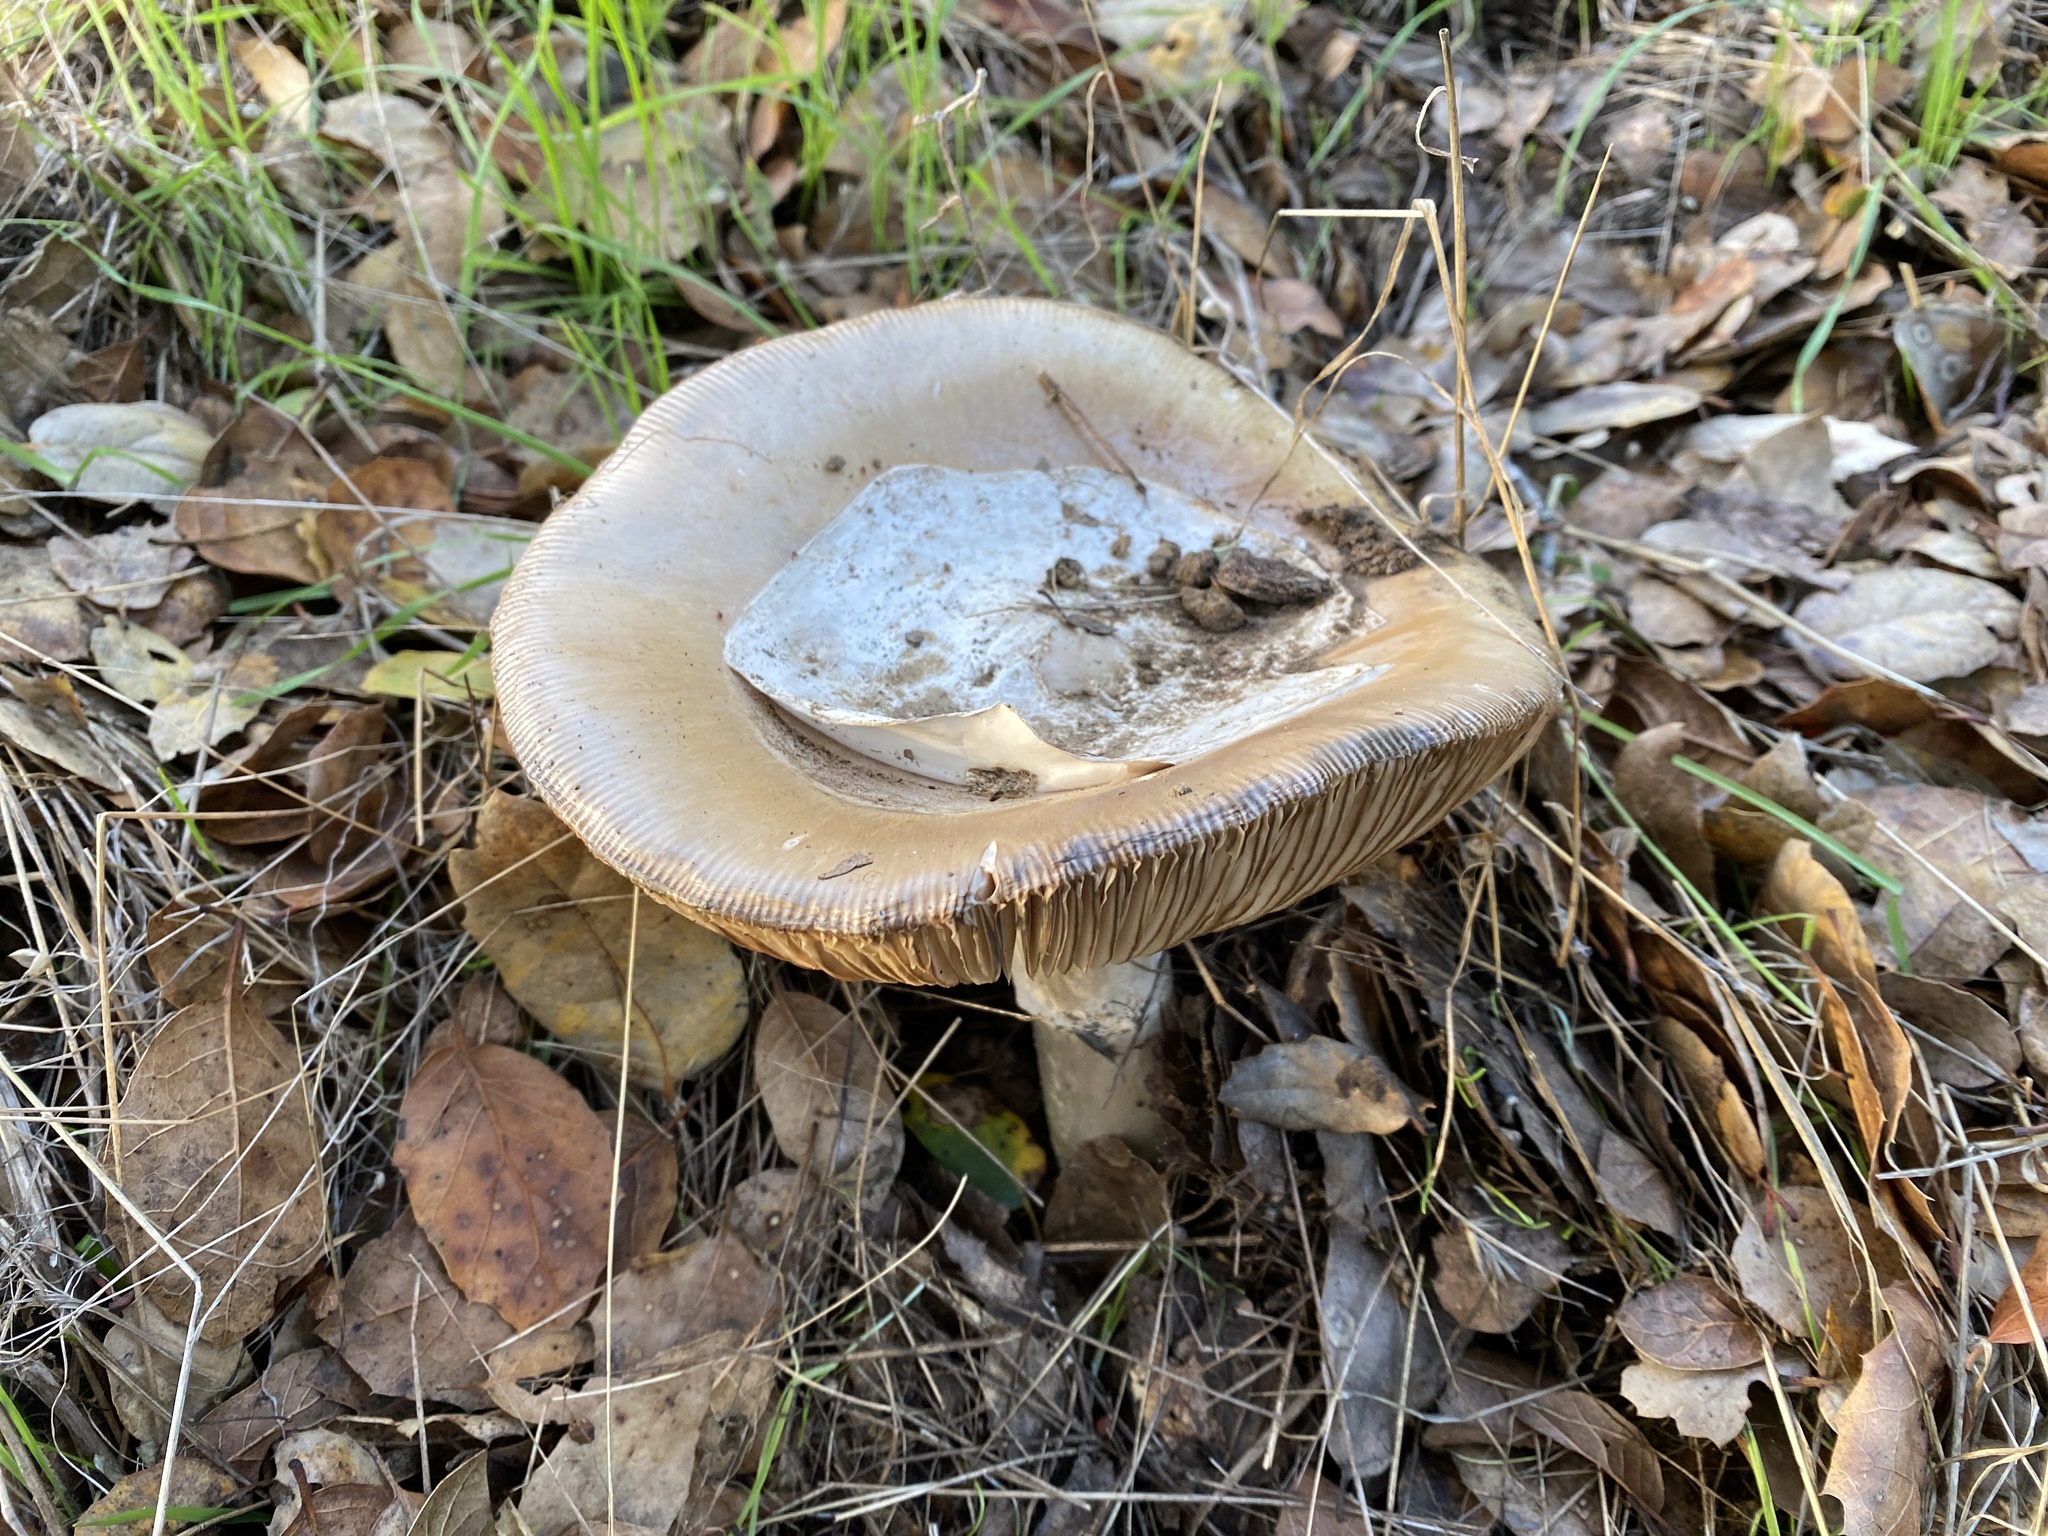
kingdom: Fungi
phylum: Basidiomycota
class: Agaricomycetes
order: Agaricales
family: Amanitaceae
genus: Amanita
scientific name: Amanita calyptroderma
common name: Coccora
